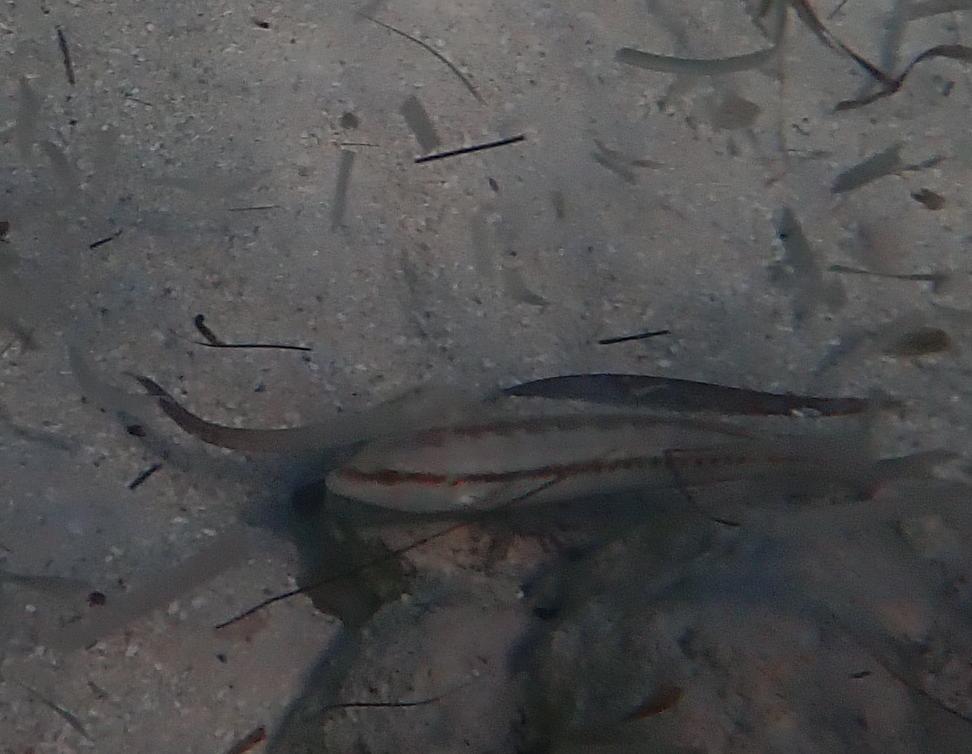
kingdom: Animalia
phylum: Chordata
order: Perciformes
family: Labridae
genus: Halichoeres
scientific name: Halichoeres bivittatus
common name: Slippery dick
